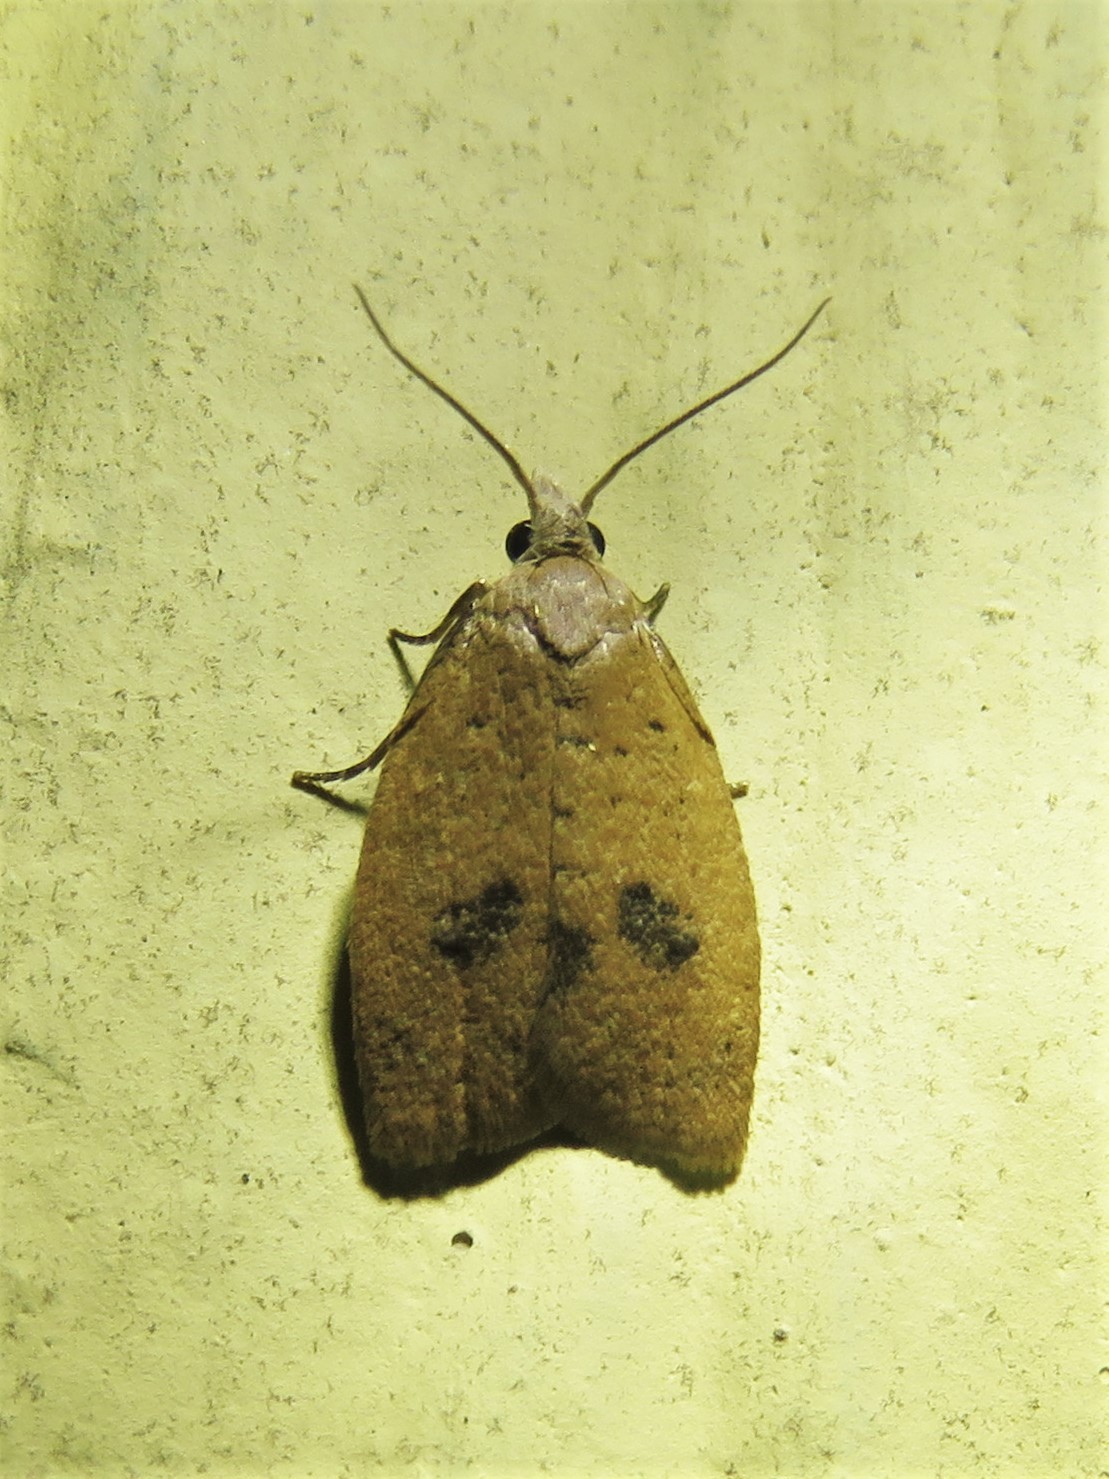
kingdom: Animalia
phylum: Arthropoda
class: Insecta
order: Lepidoptera
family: Tortricidae
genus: Sparganothoides
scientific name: Sparganothoides lentiginosana
